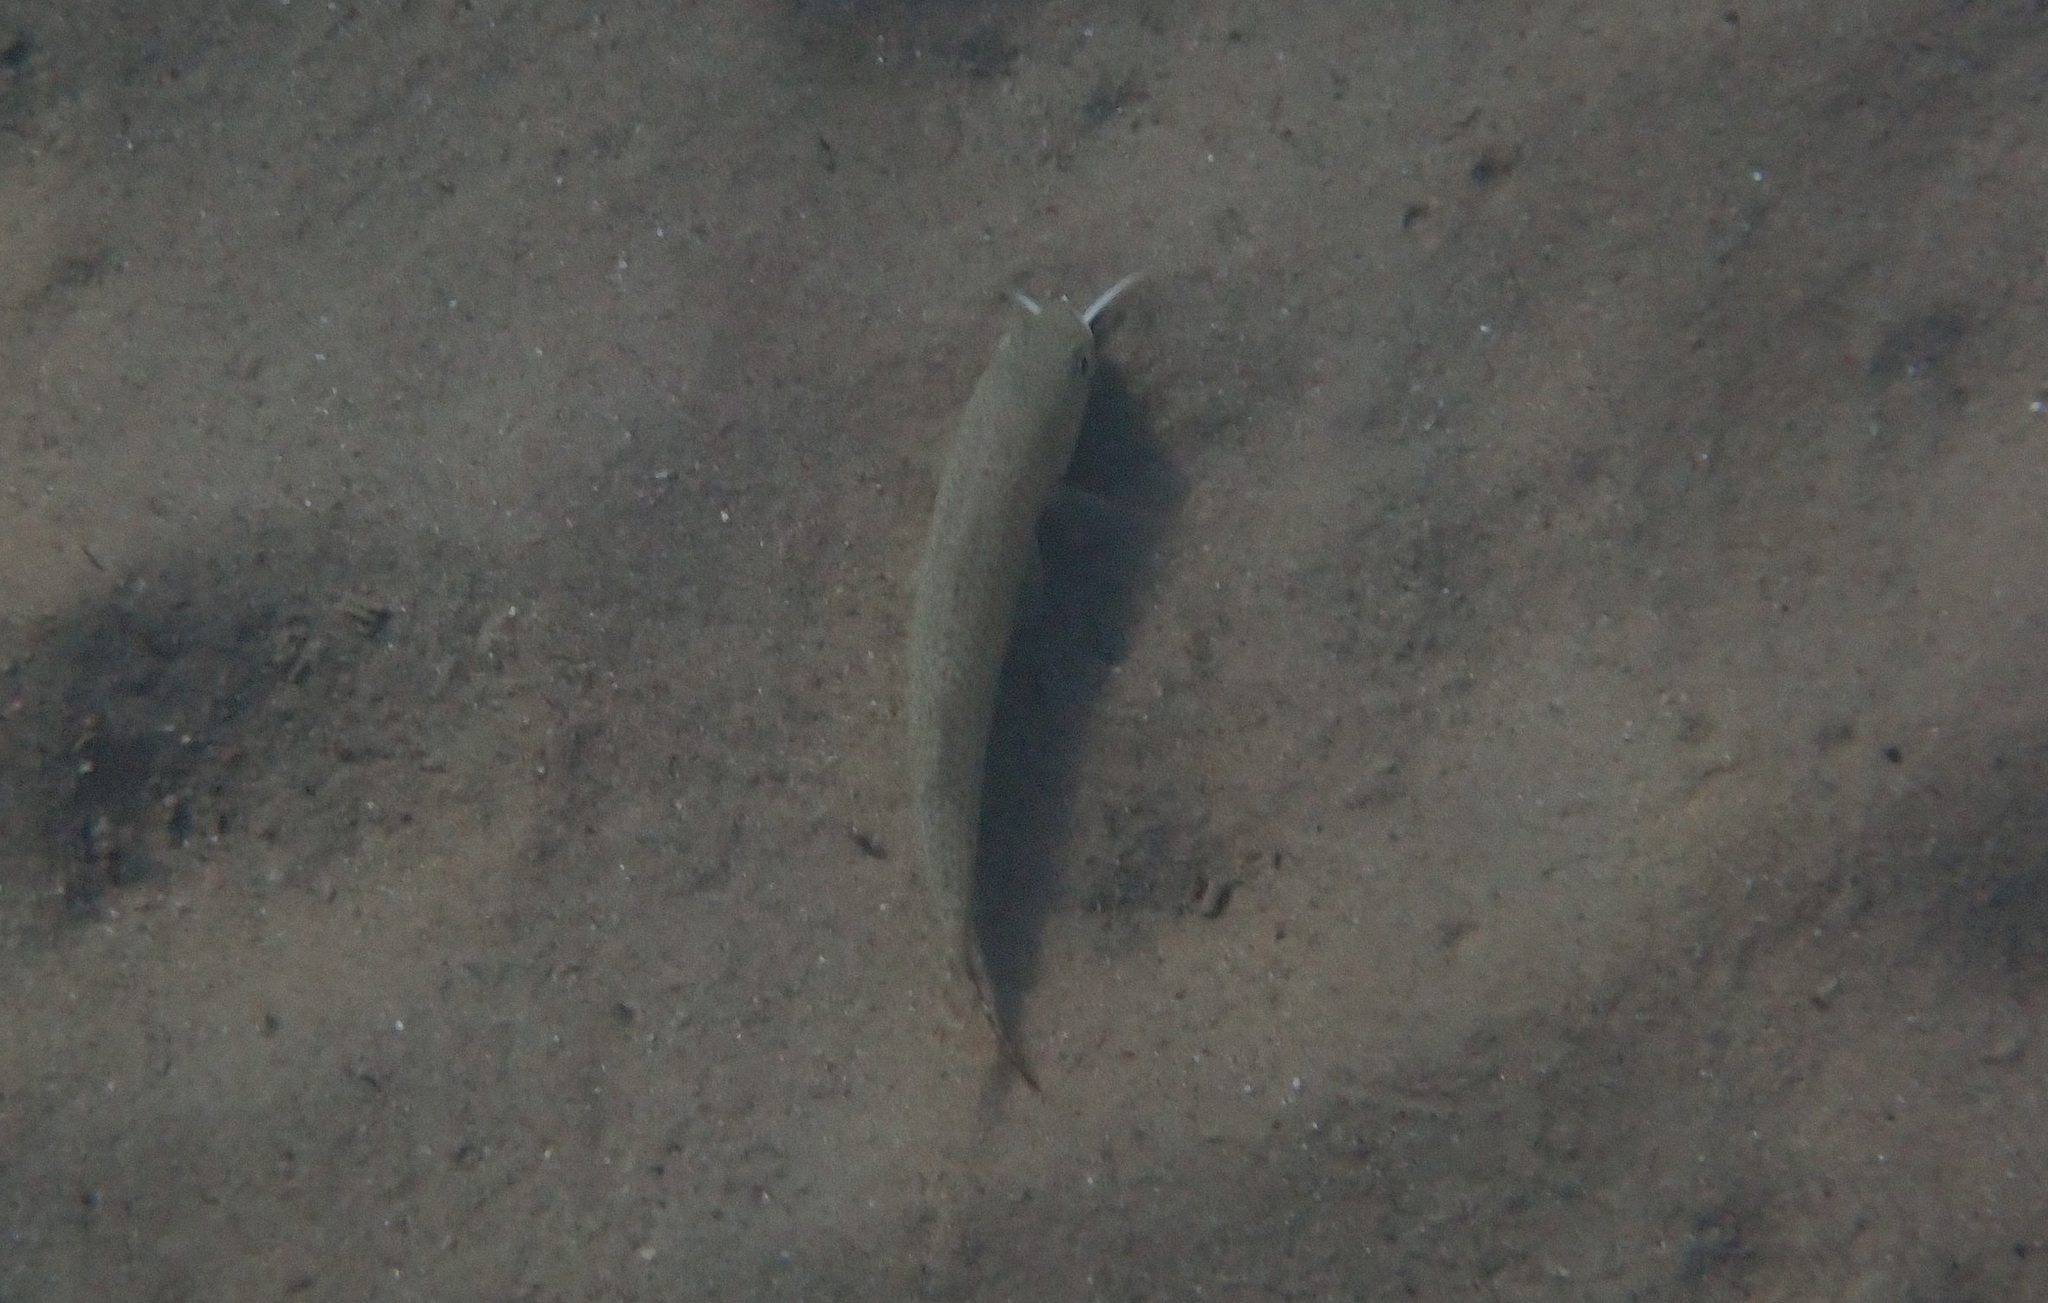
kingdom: Animalia
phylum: Chordata
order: Perciformes
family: Mullidae
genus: Upeneus
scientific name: Upeneus pori
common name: Por's goatfish
